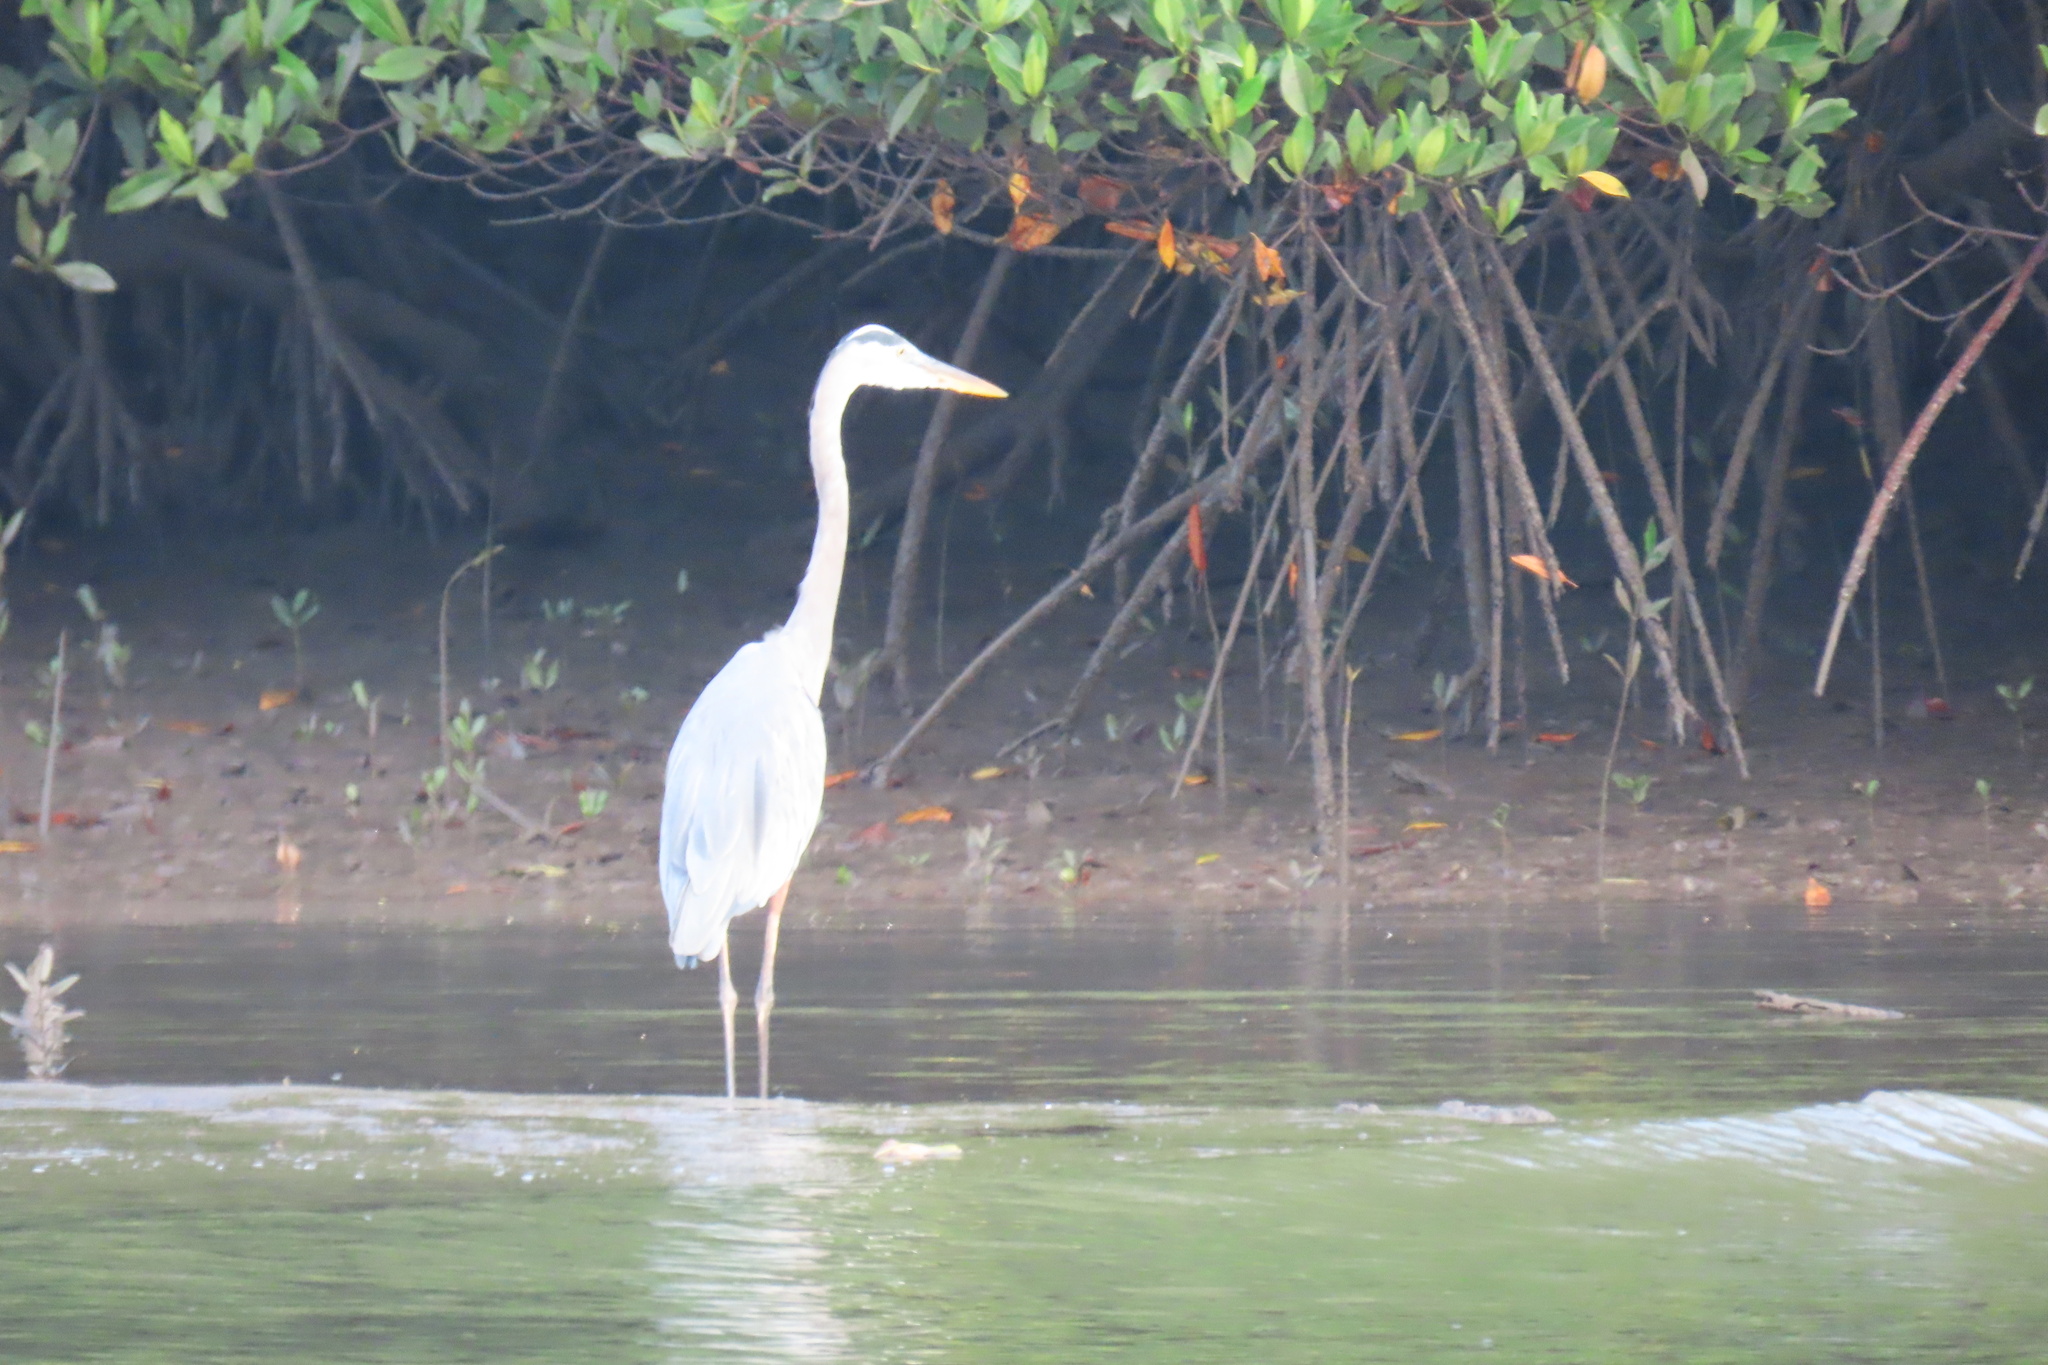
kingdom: Animalia
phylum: Chordata
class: Aves
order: Pelecaniformes
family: Ardeidae
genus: Ardea
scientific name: Ardea herodias
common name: Great blue heron
